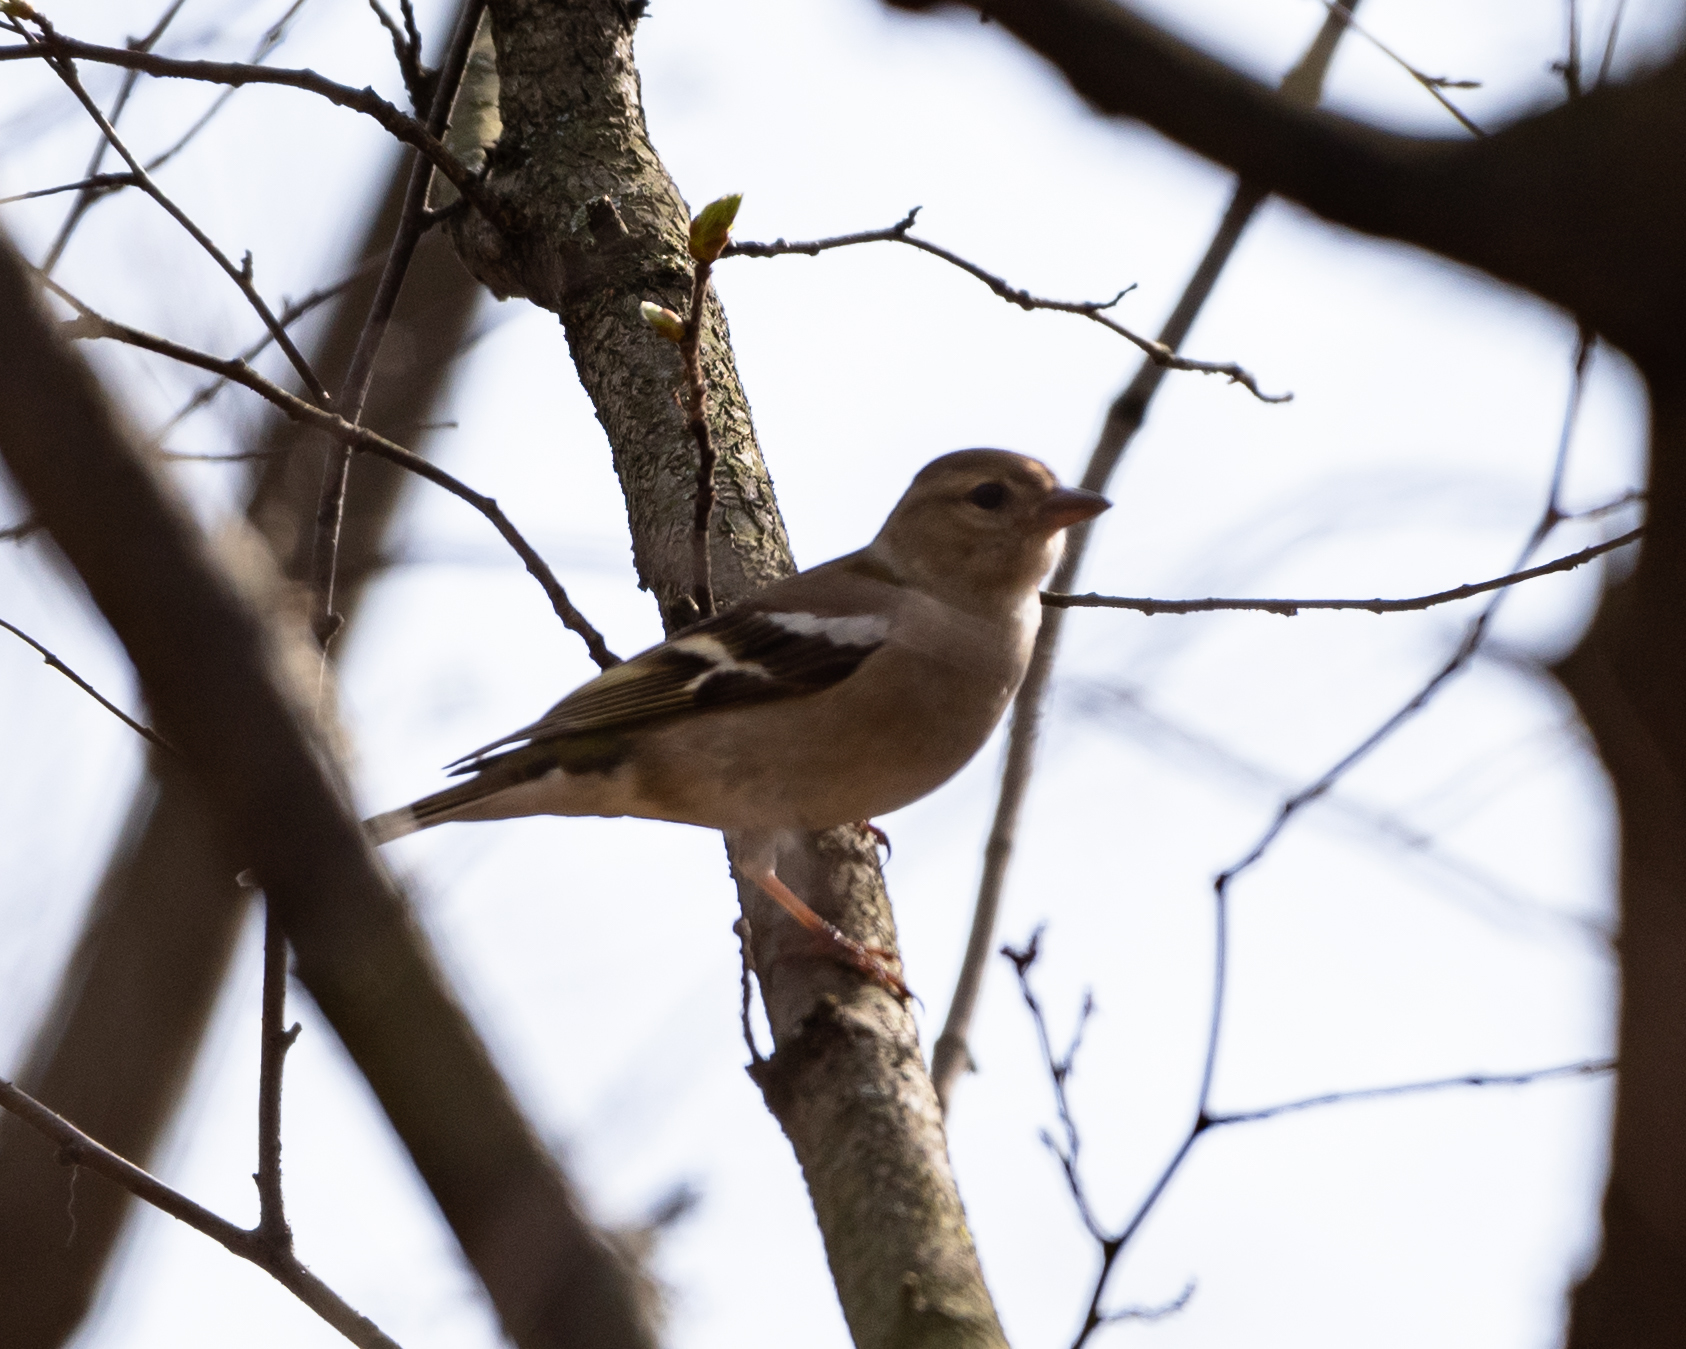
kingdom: Animalia
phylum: Chordata
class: Aves
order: Passeriformes
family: Fringillidae
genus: Fringilla
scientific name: Fringilla coelebs
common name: Common chaffinch
